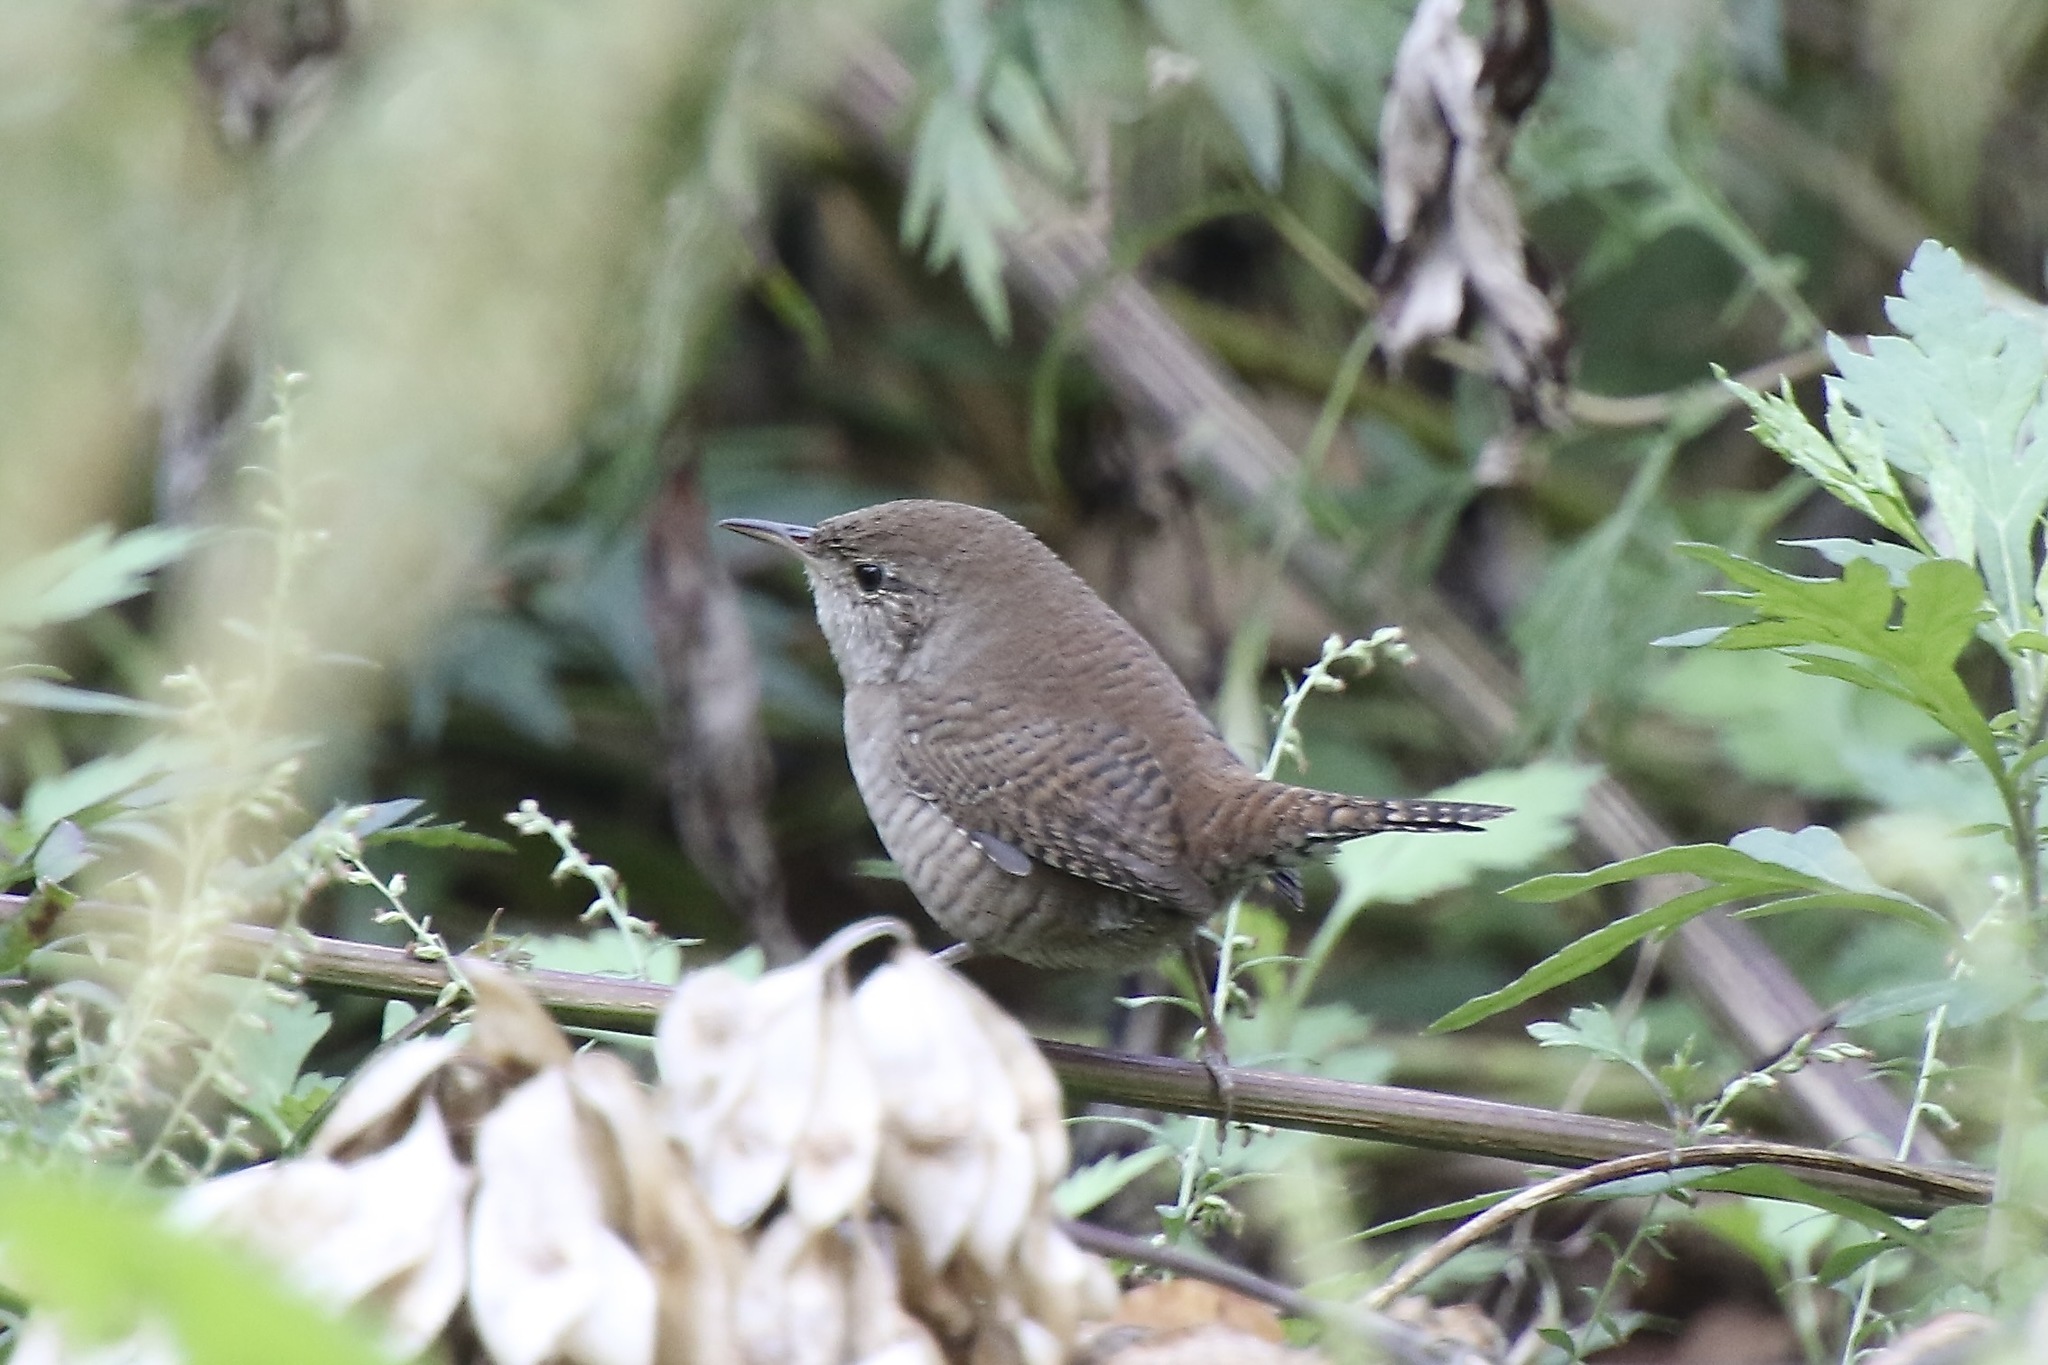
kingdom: Animalia
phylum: Chordata
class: Aves
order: Passeriformes
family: Troglodytidae
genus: Troglodytes
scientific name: Troglodytes aedon
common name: House wren
